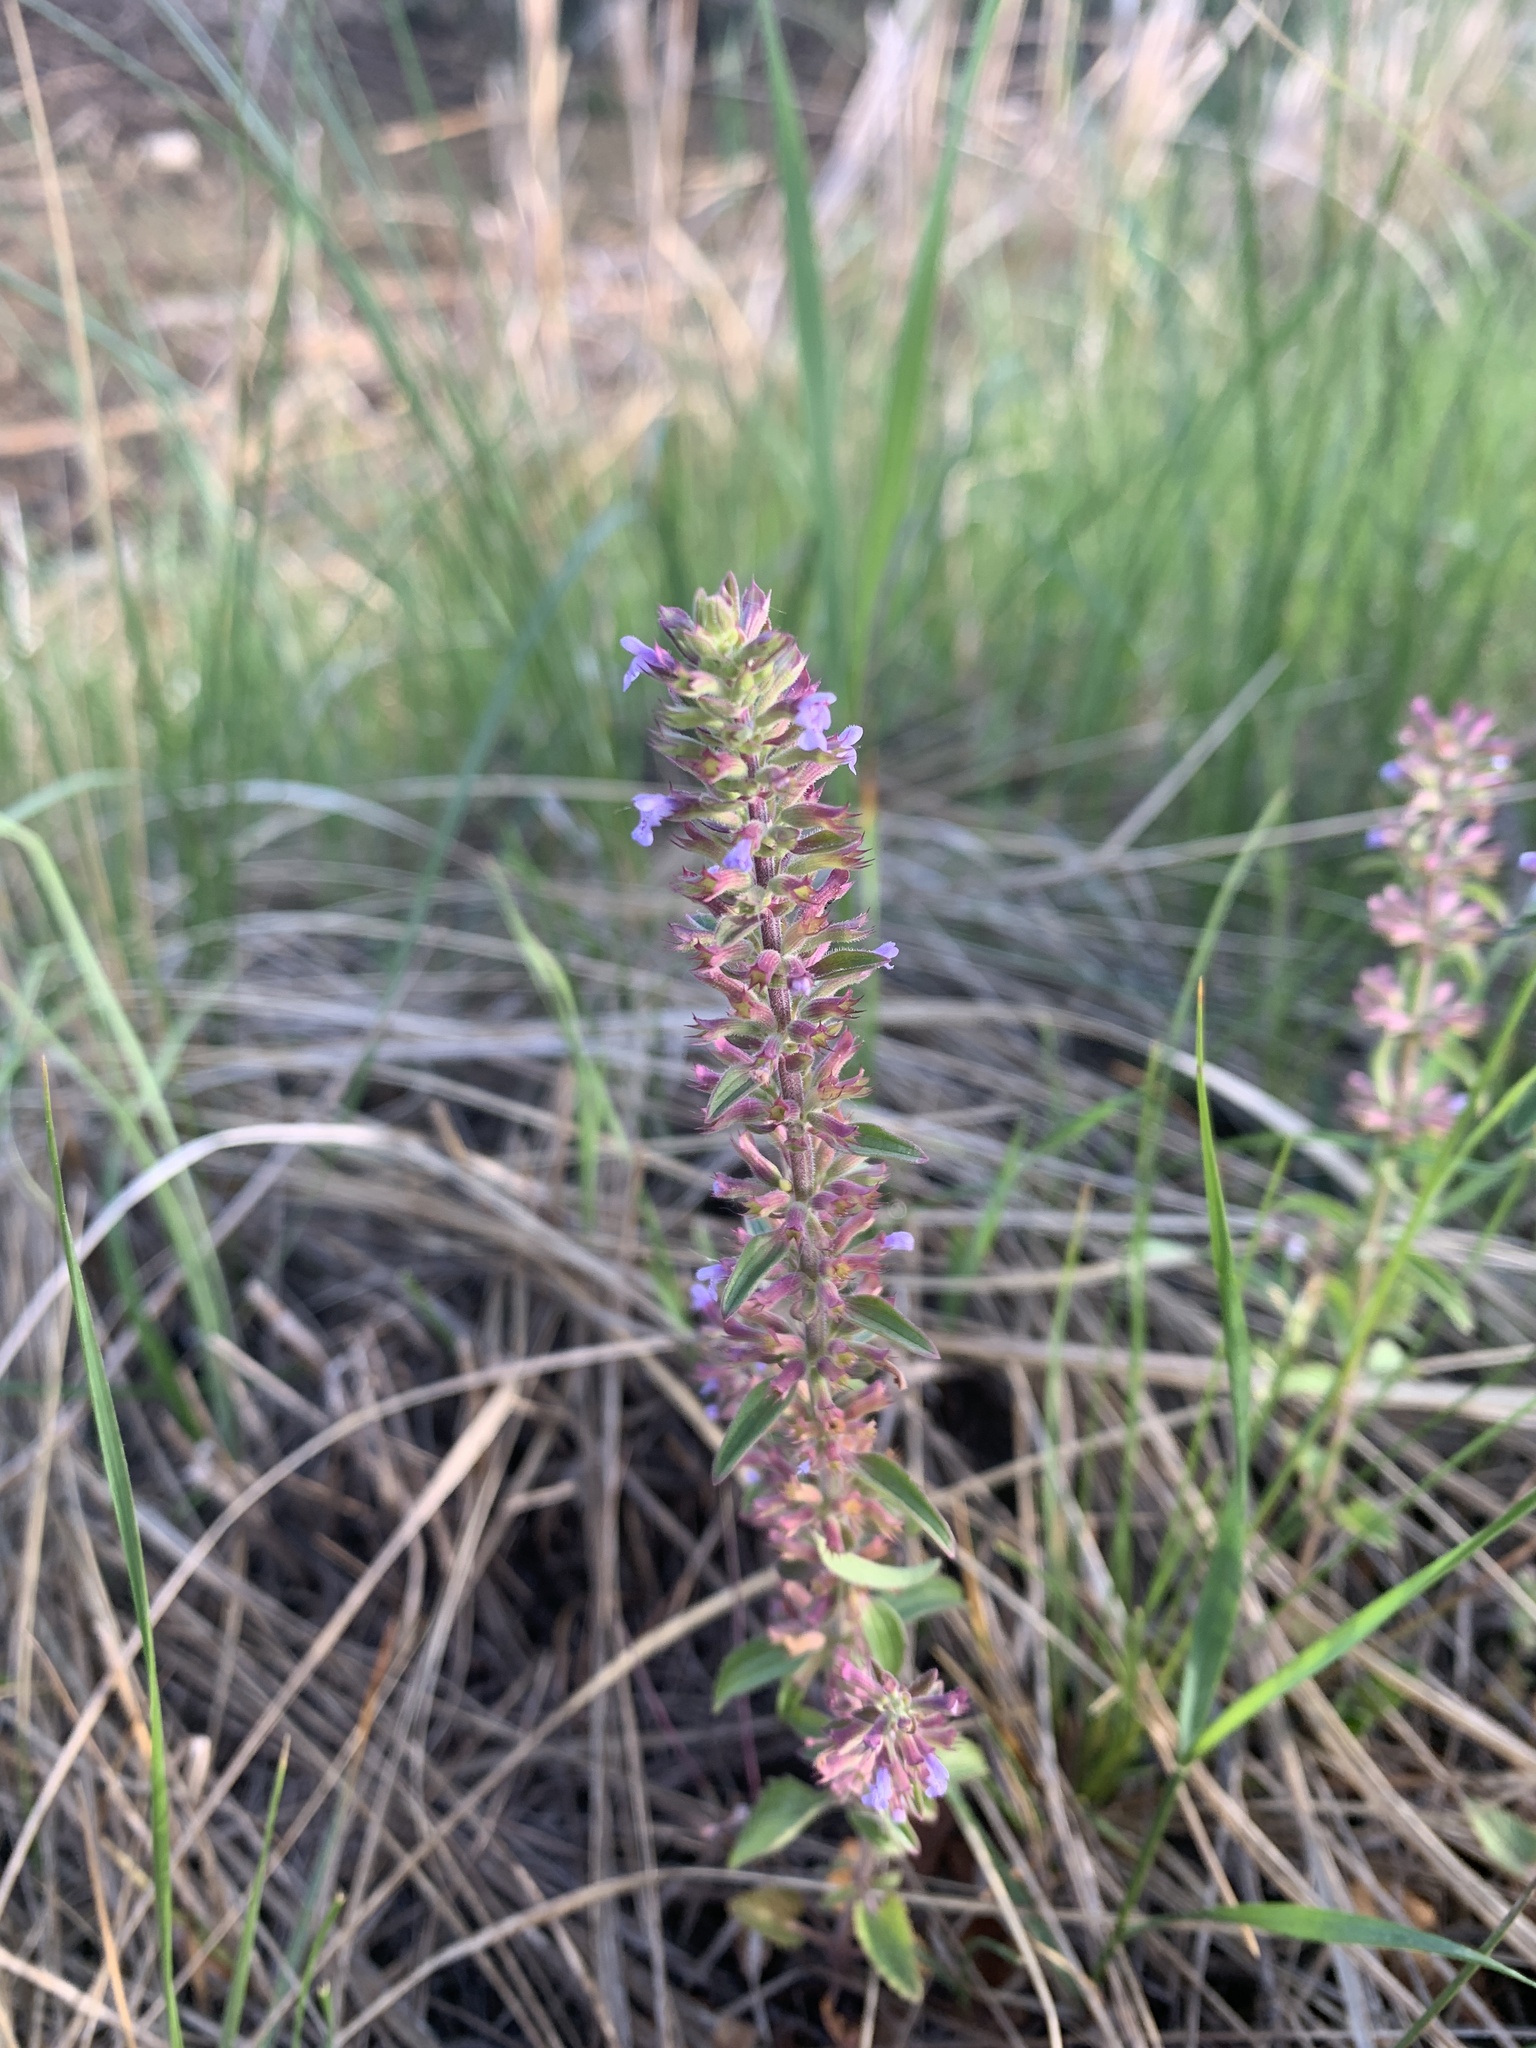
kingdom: Plantae
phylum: Tracheophyta
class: Magnoliopsida
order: Lamiales
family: Lamiaceae
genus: Dracocephalum
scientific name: Dracocephalum thymiflorum
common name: Thymeleaf dragonhead
